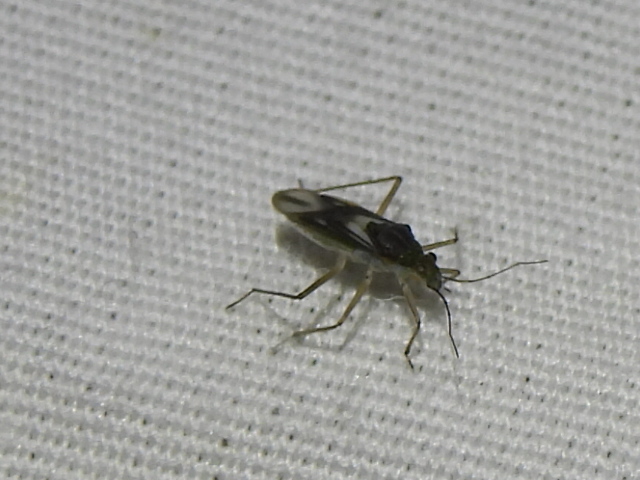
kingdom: Animalia
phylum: Arthropoda
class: Insecta
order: Hemiptera
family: Mesoveliidae
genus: Mesovelia
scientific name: Mesovelia mulsanti
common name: Water treaders
